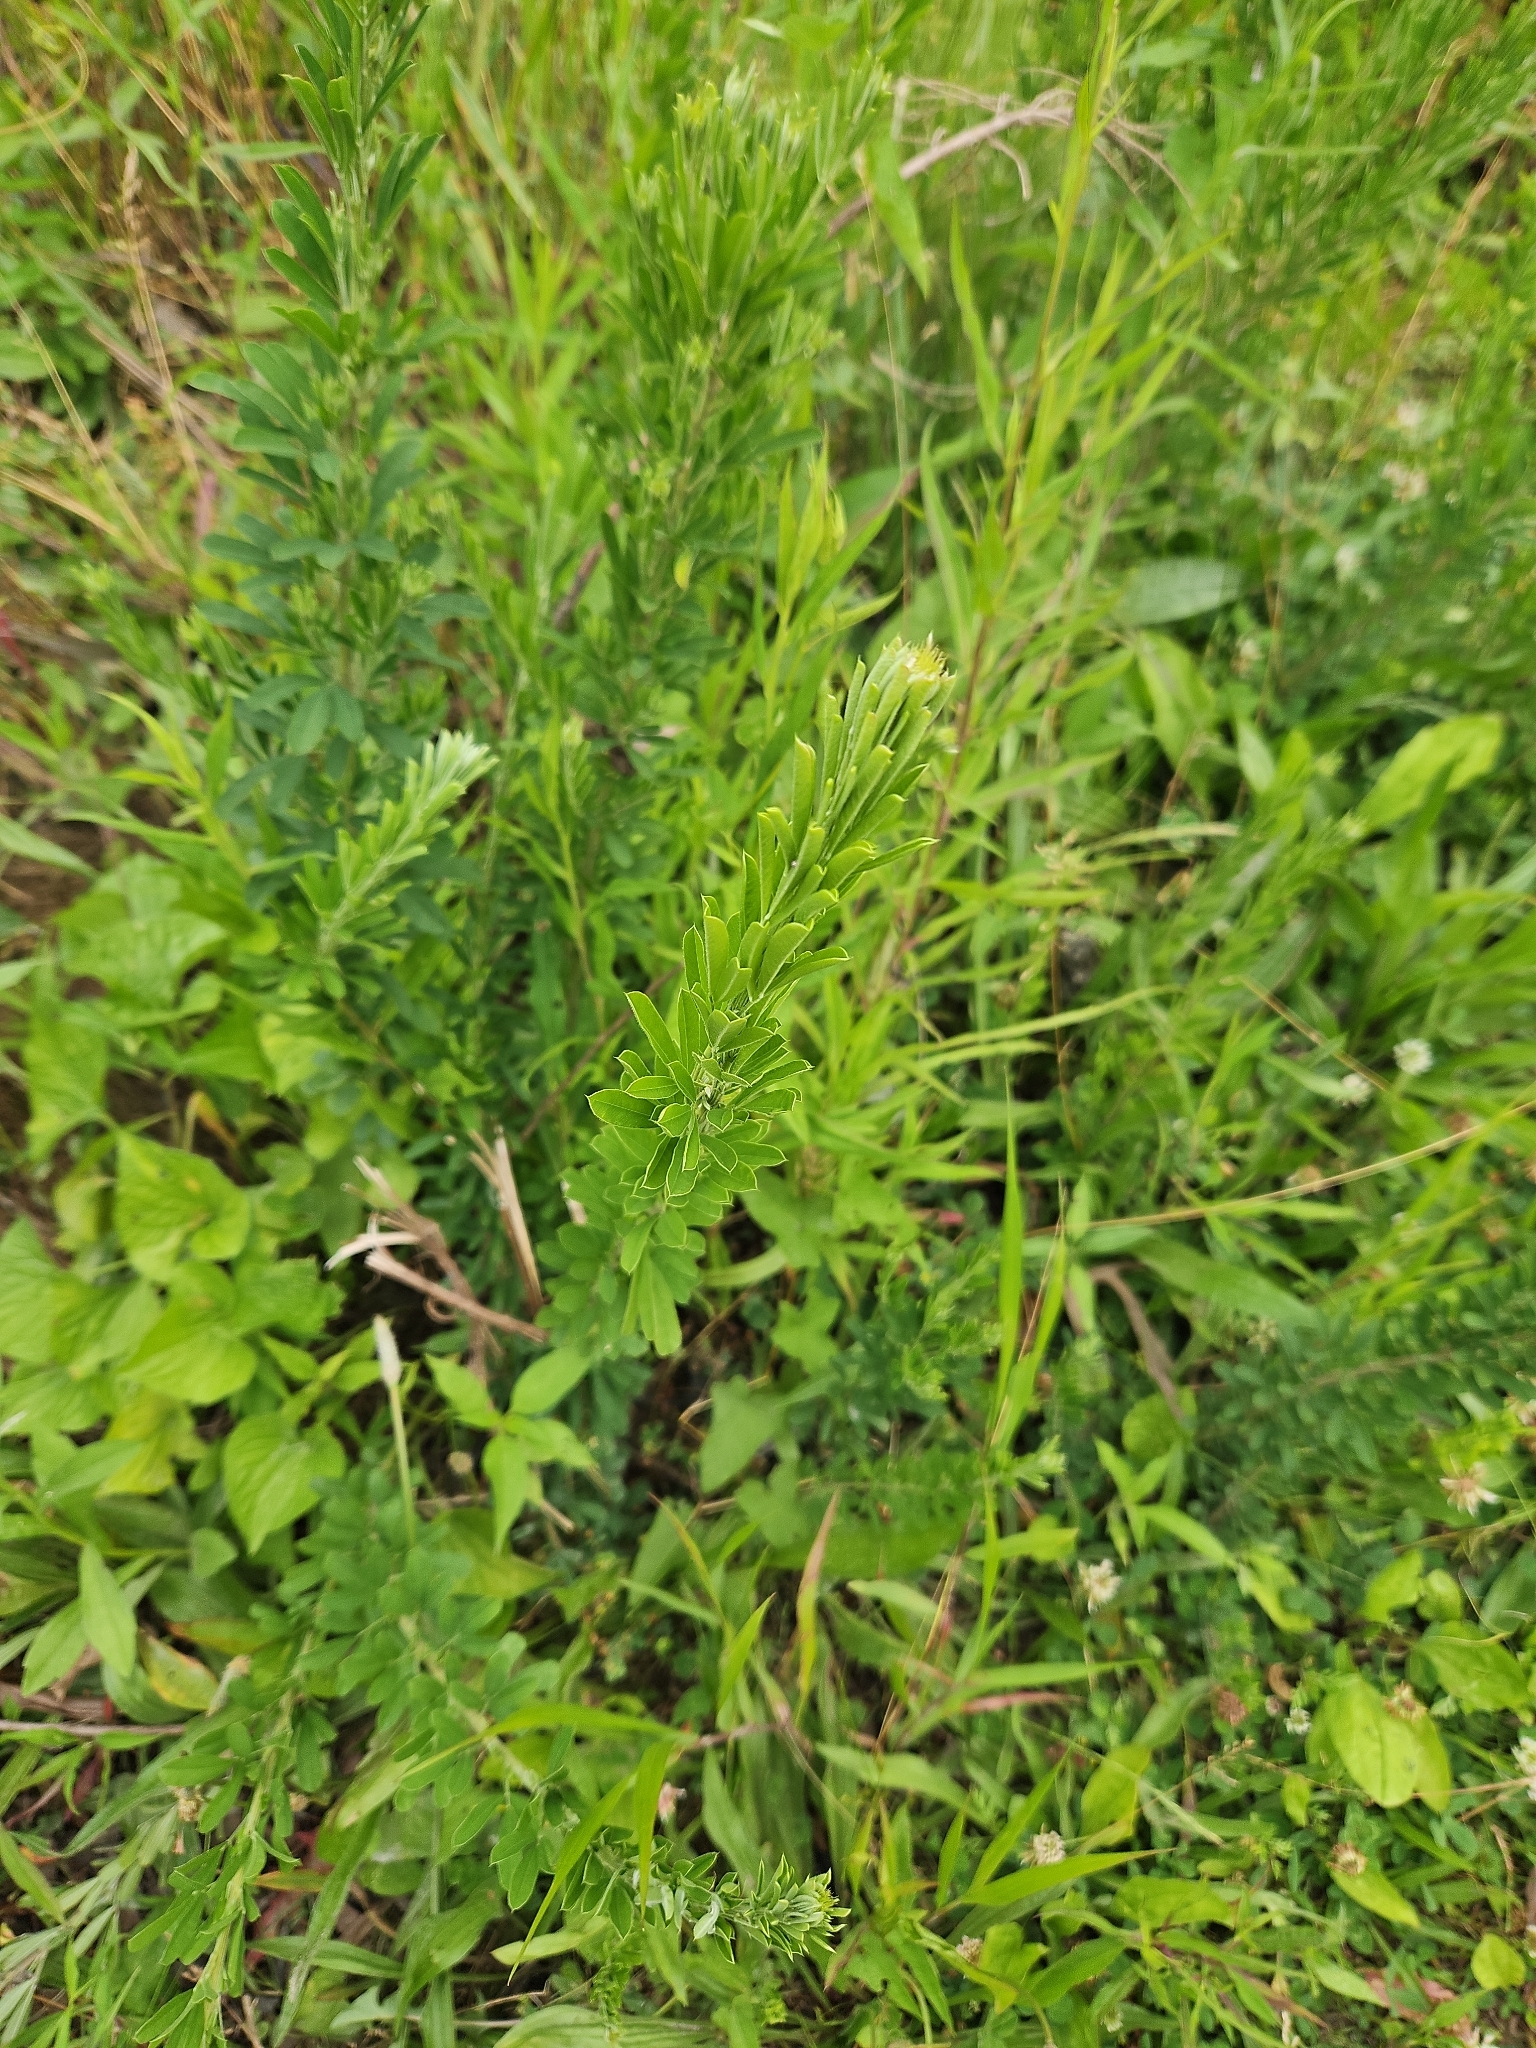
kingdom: Plantae
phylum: Tracheophyta
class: Magnoliopsida
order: Fabales
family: Fabaceae
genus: Lespedeza
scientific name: Lespedeza cuneata
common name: Chinese bush-clover
